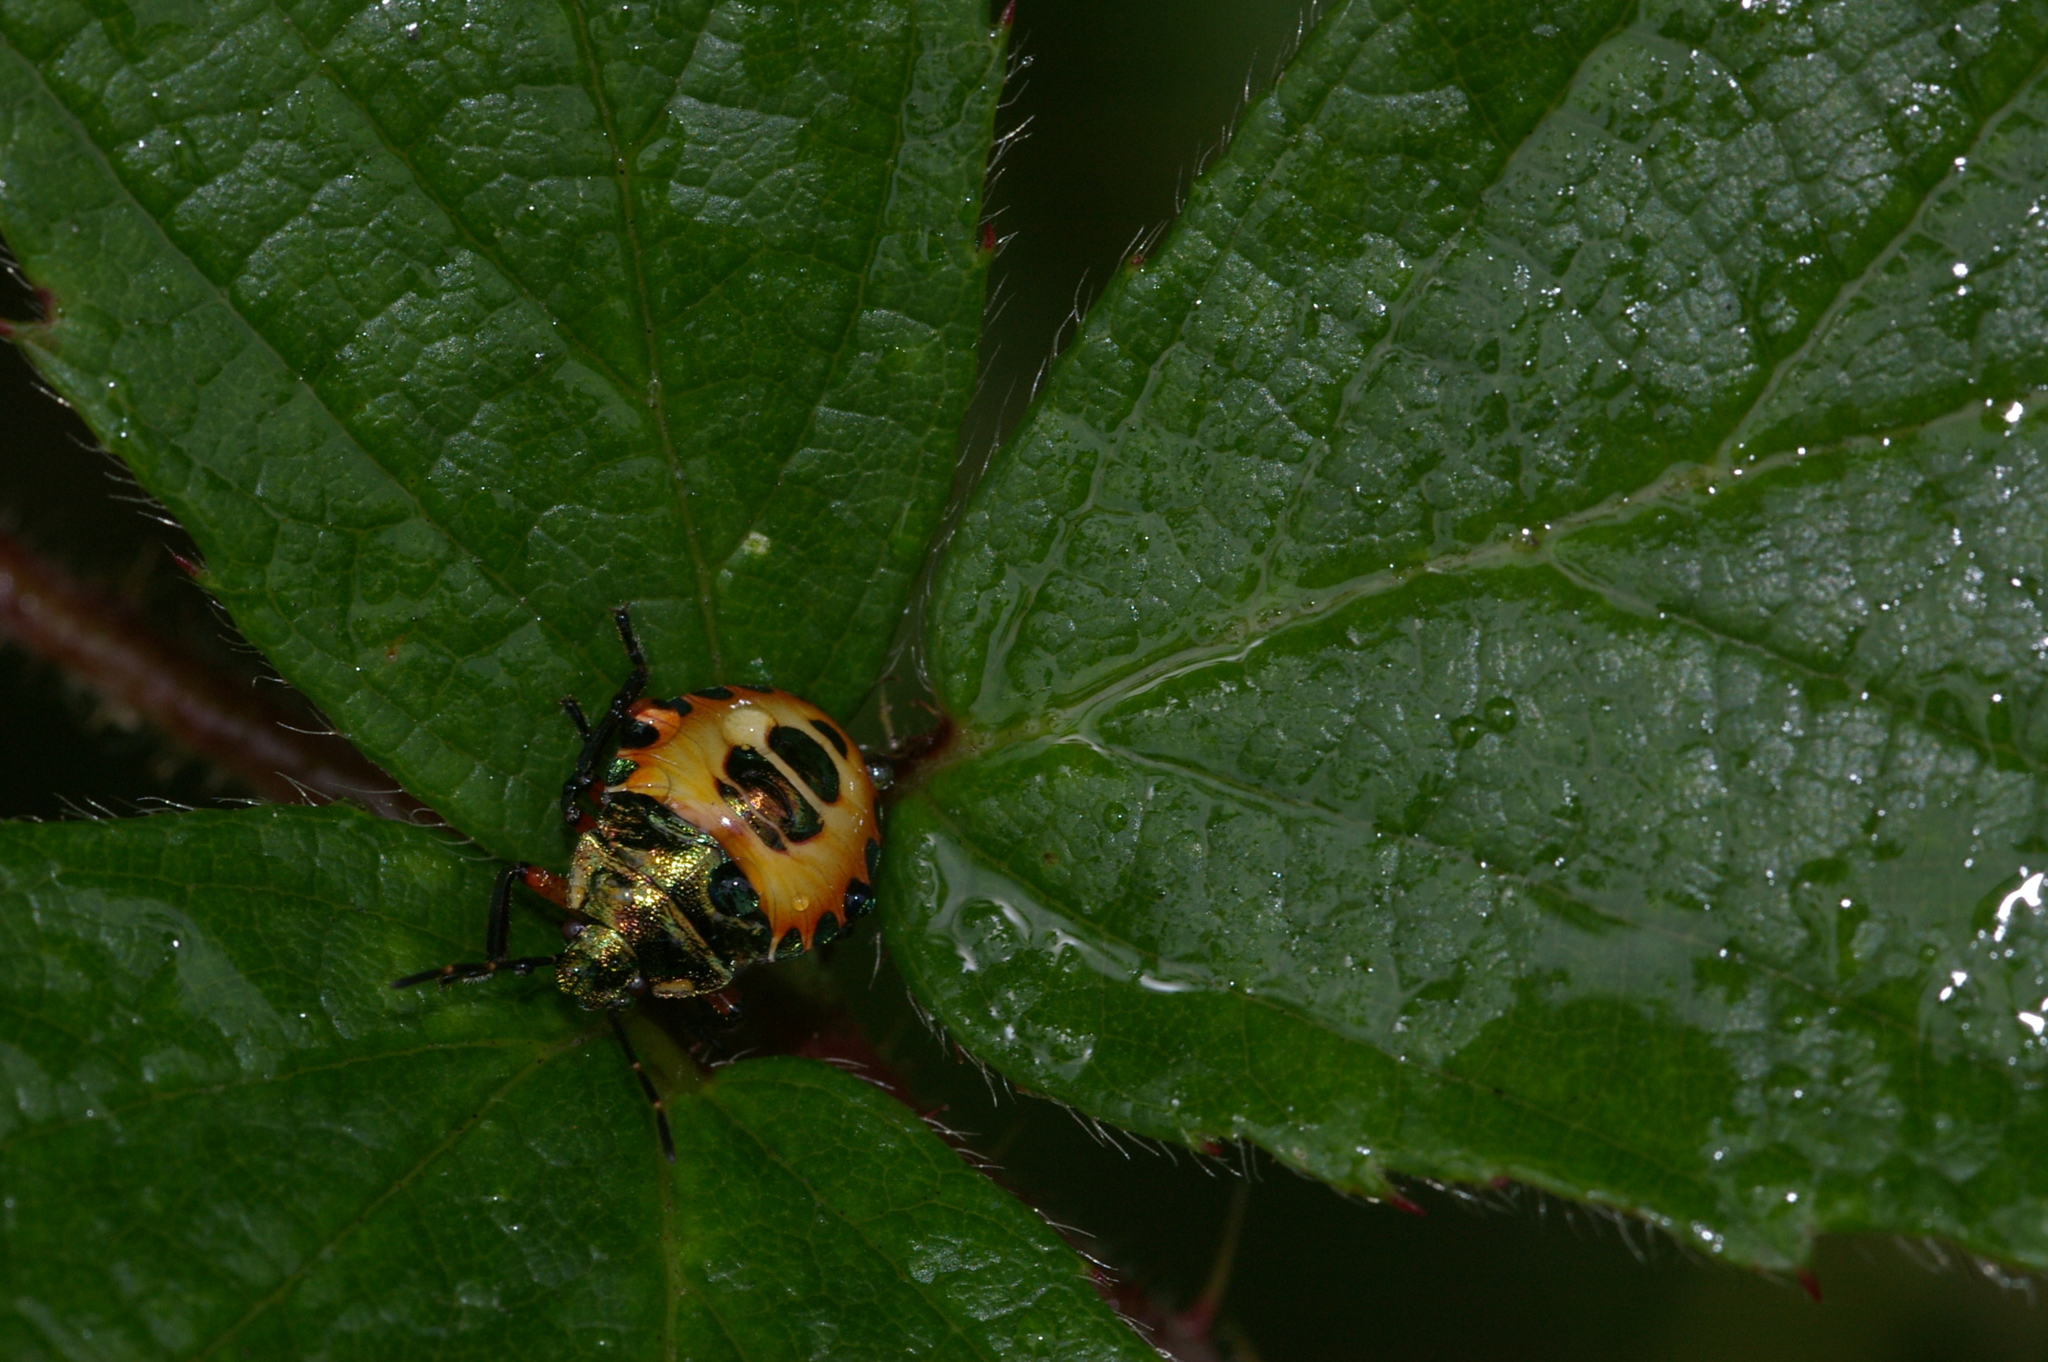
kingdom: Animalia
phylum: Arthropoda
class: Insecta
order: Hemiptera
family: Pentatomidae
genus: Troilus
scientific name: Troilus luridus
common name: Bronze shieldbug
